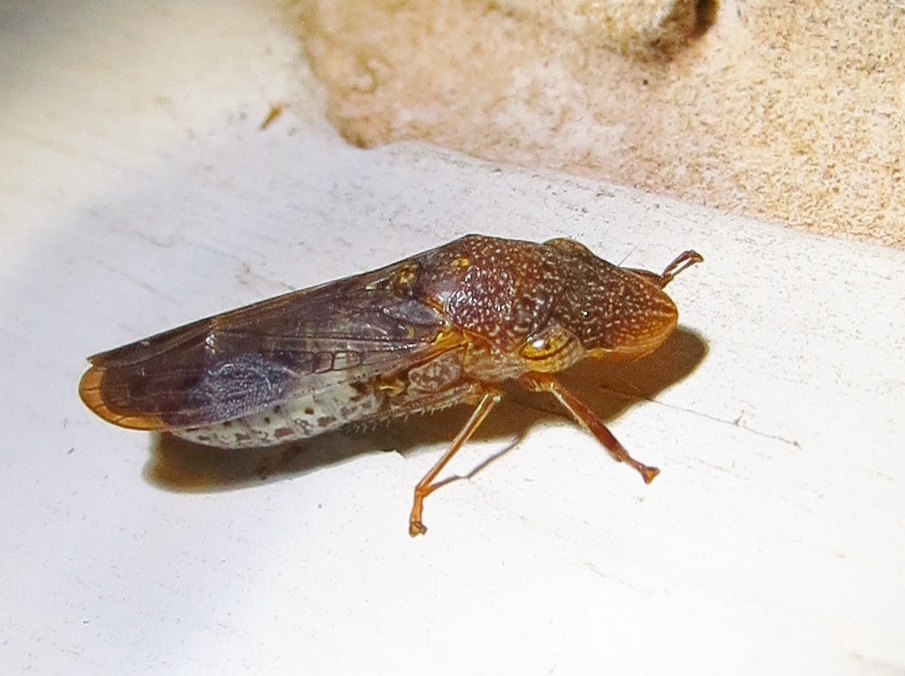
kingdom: Animalia
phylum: Arthropoda
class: Insecta
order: Hemiptera
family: Cicadellidae
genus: Homalodisca
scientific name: Homalodisca vitripennis
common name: Glassy-winged sharpshooter
